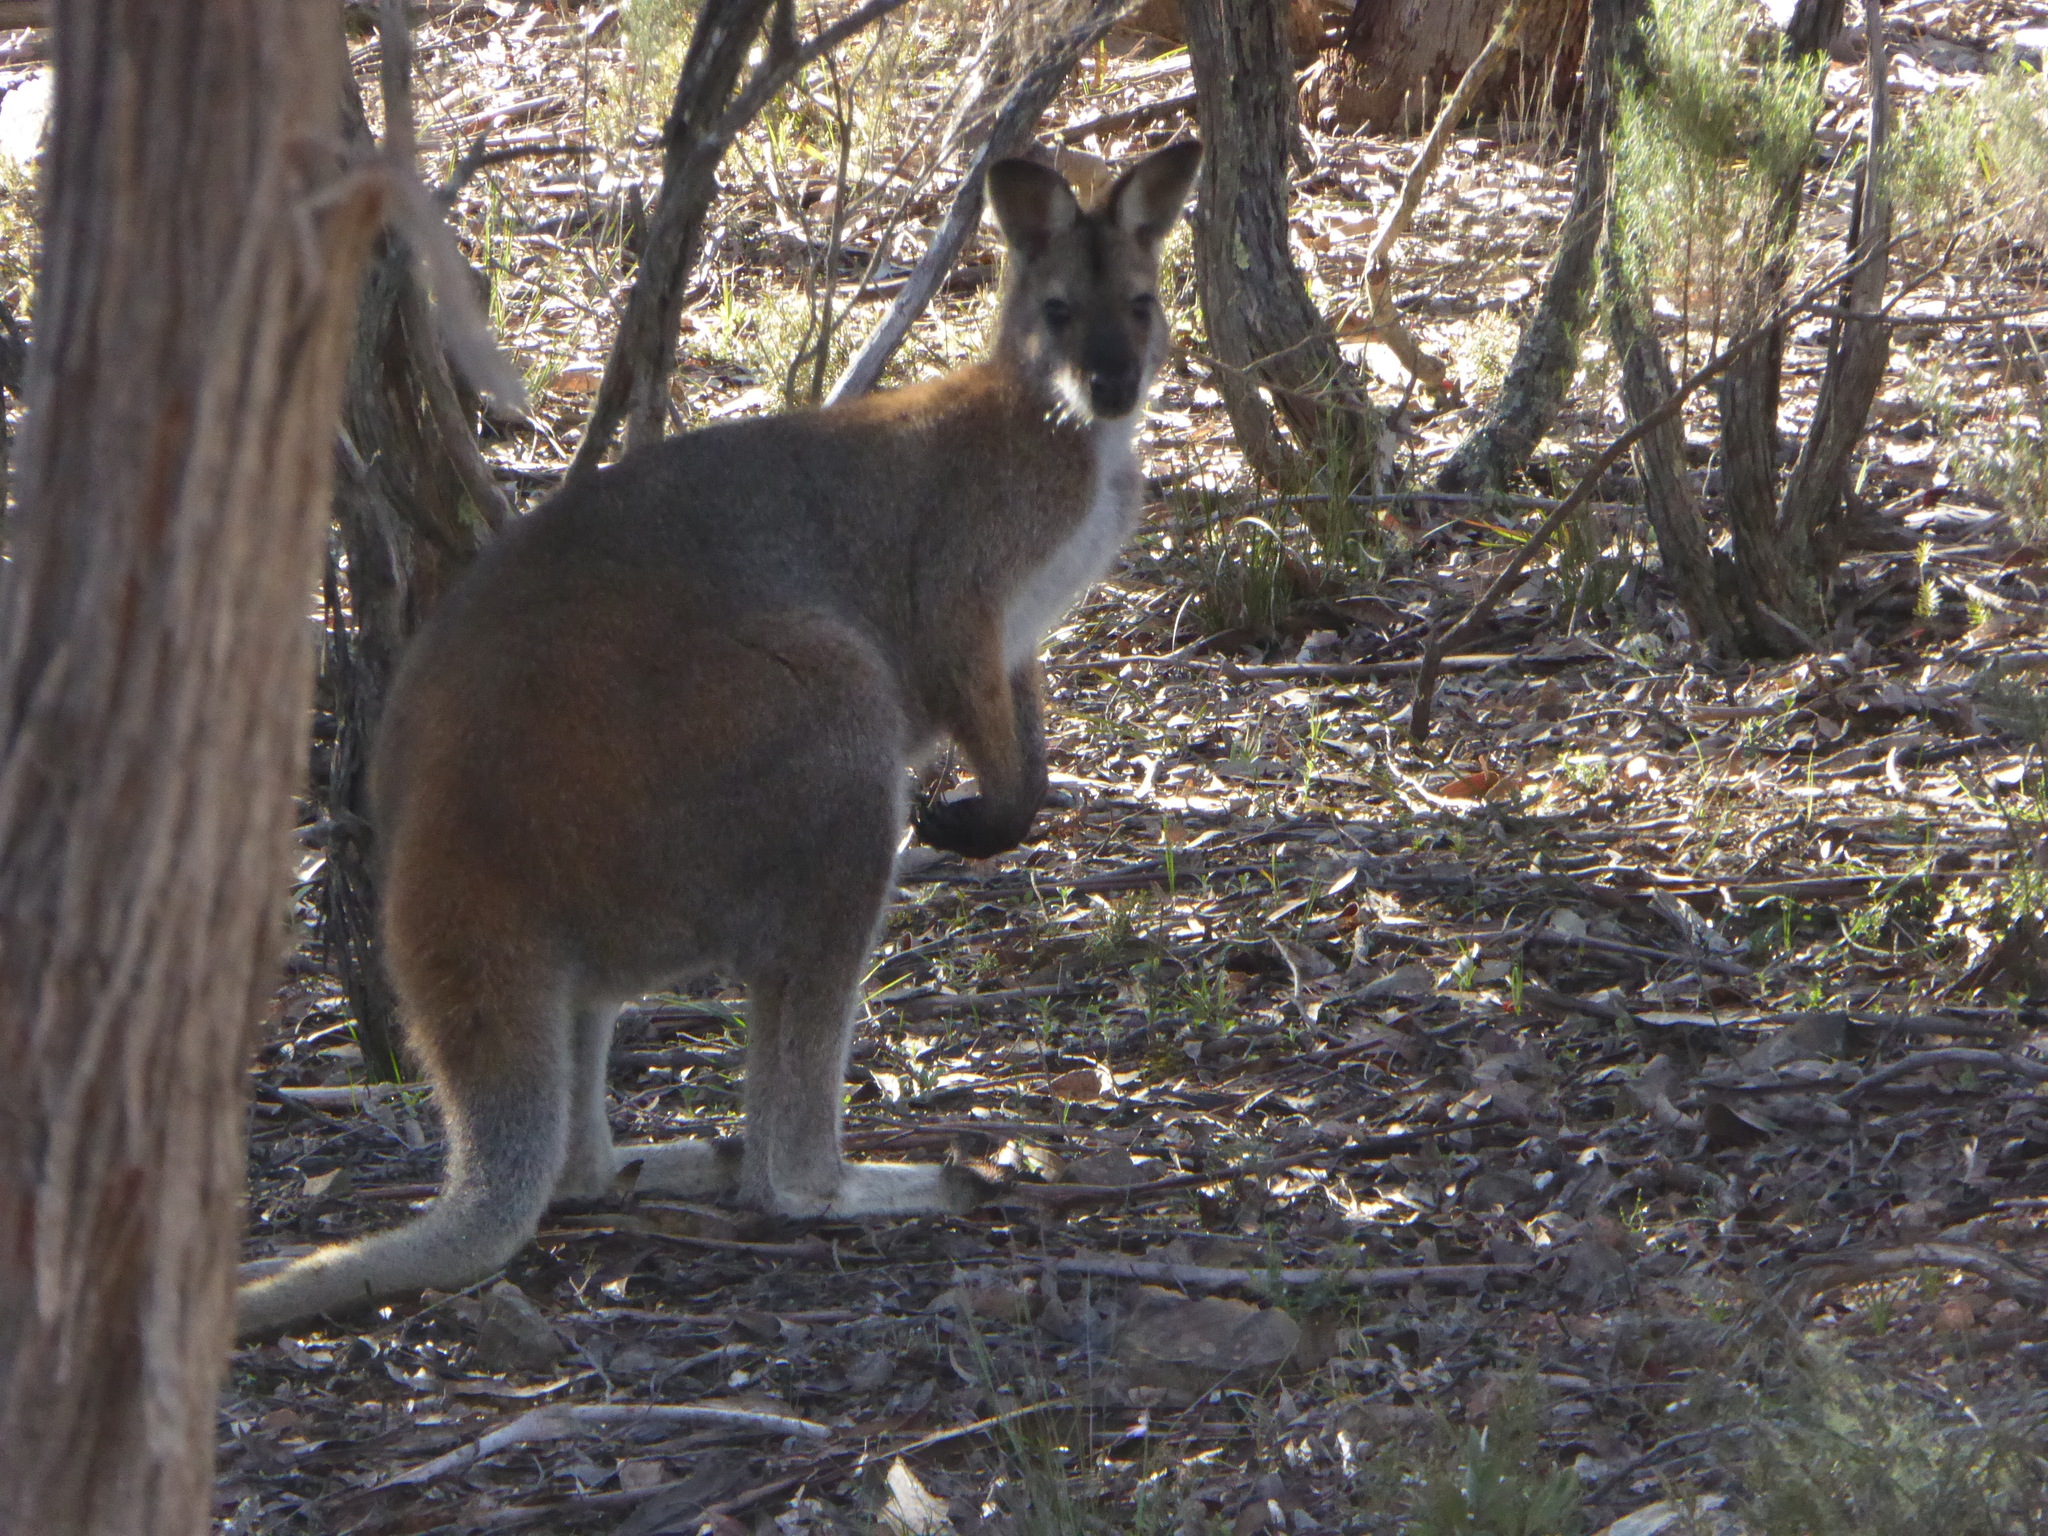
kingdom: Animalia
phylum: Chordata
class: Mammalia
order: Diprotodontia
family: Macropodidae
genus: Notamacropus
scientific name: Notamacropus rufogriseus
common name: Red-necked wallaby
